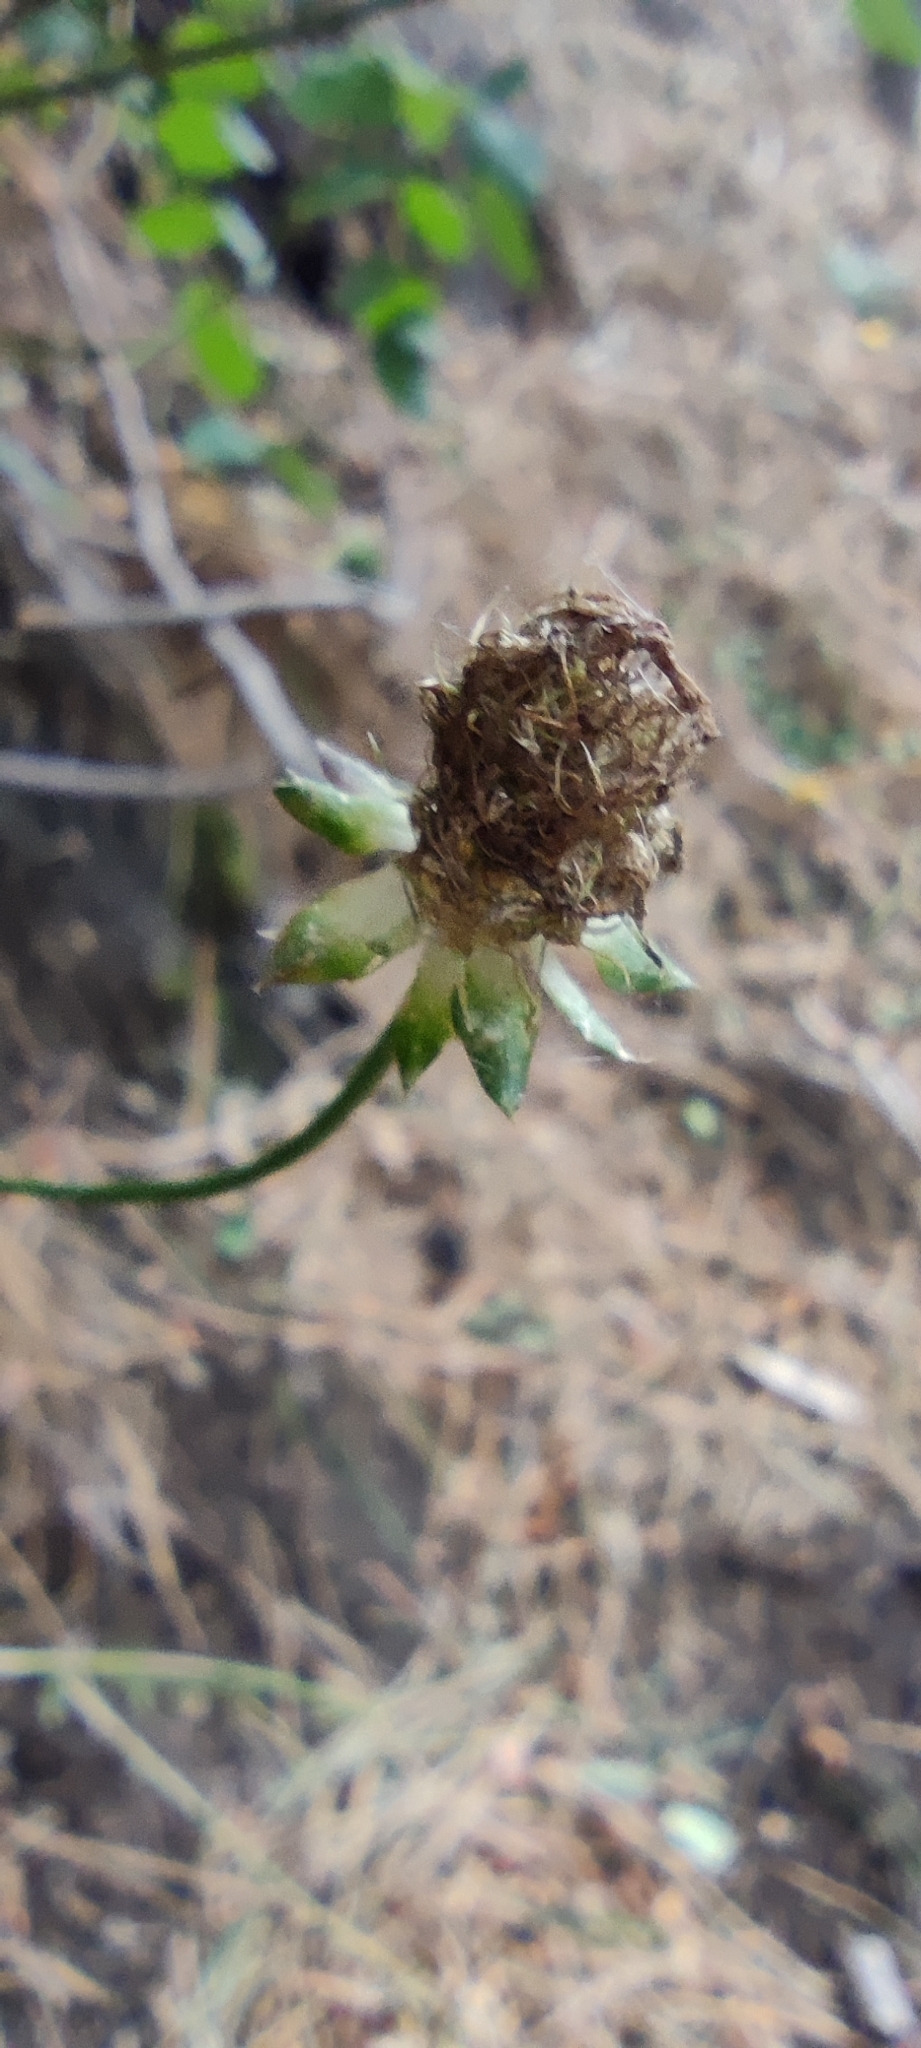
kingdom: Plantae
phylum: Tracheophyta
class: Magnoliopsida
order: Asterales
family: Campanulaceae
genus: Jasione
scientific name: Jasione montana
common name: Sheep's-bit
